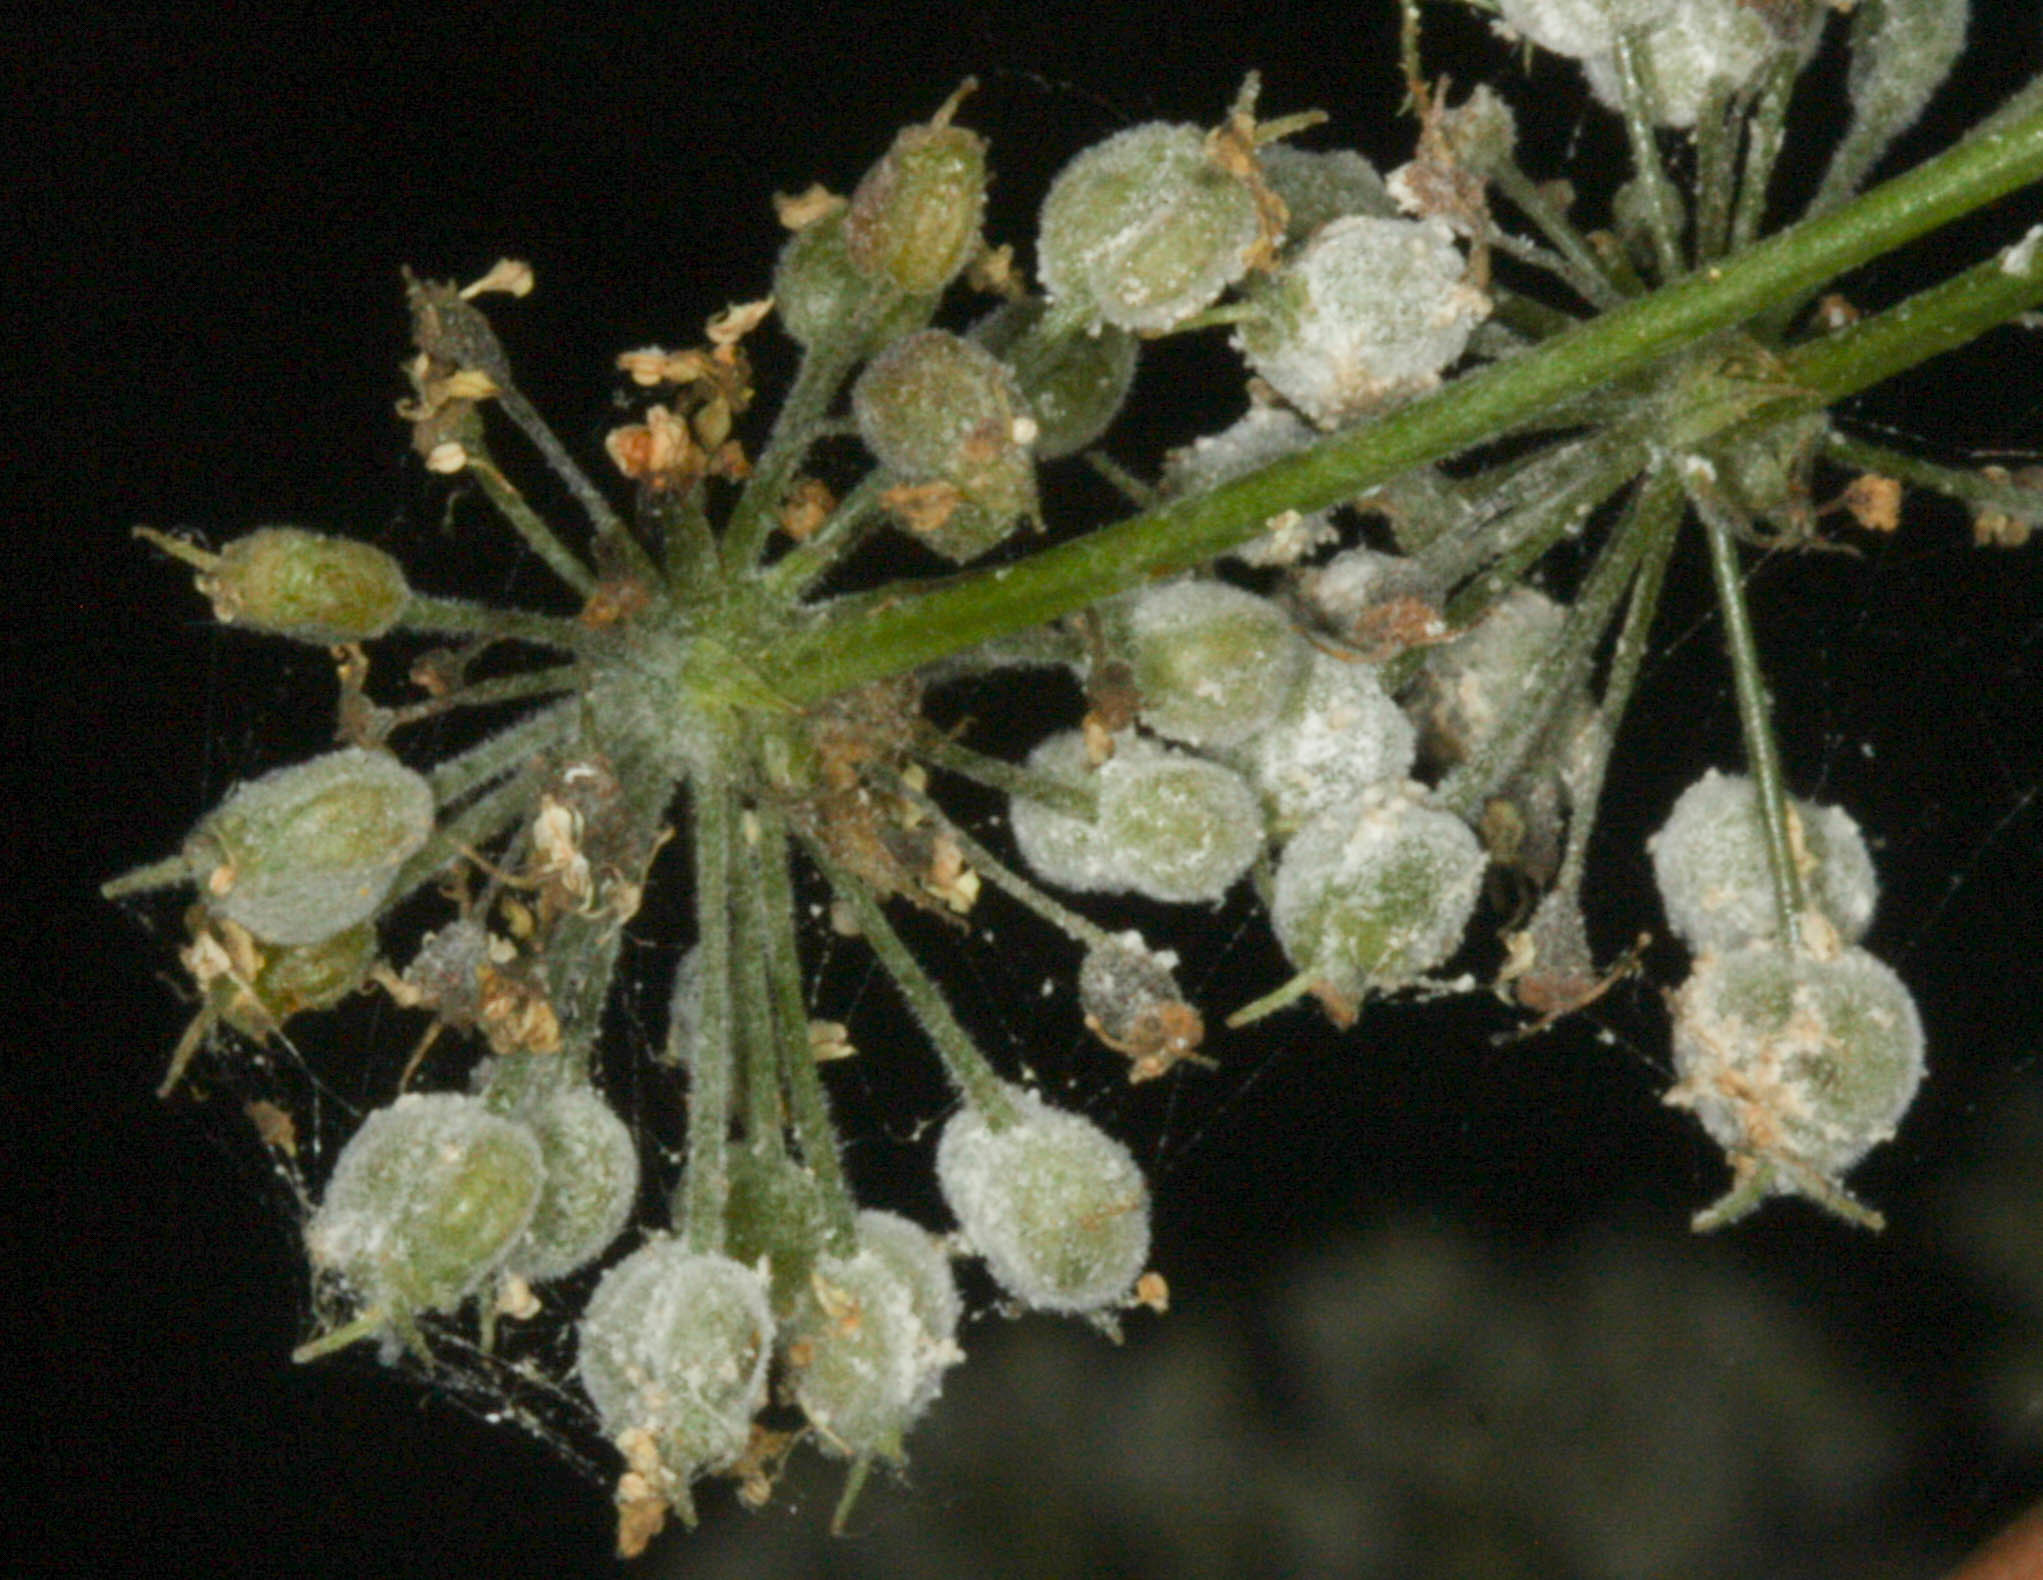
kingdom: Plantae
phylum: Tracheophyta
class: Magnoliopsida
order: Apiales
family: Apiaceae
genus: Cicuta
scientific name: Cicuta douglasii
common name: Western water-hemlock
